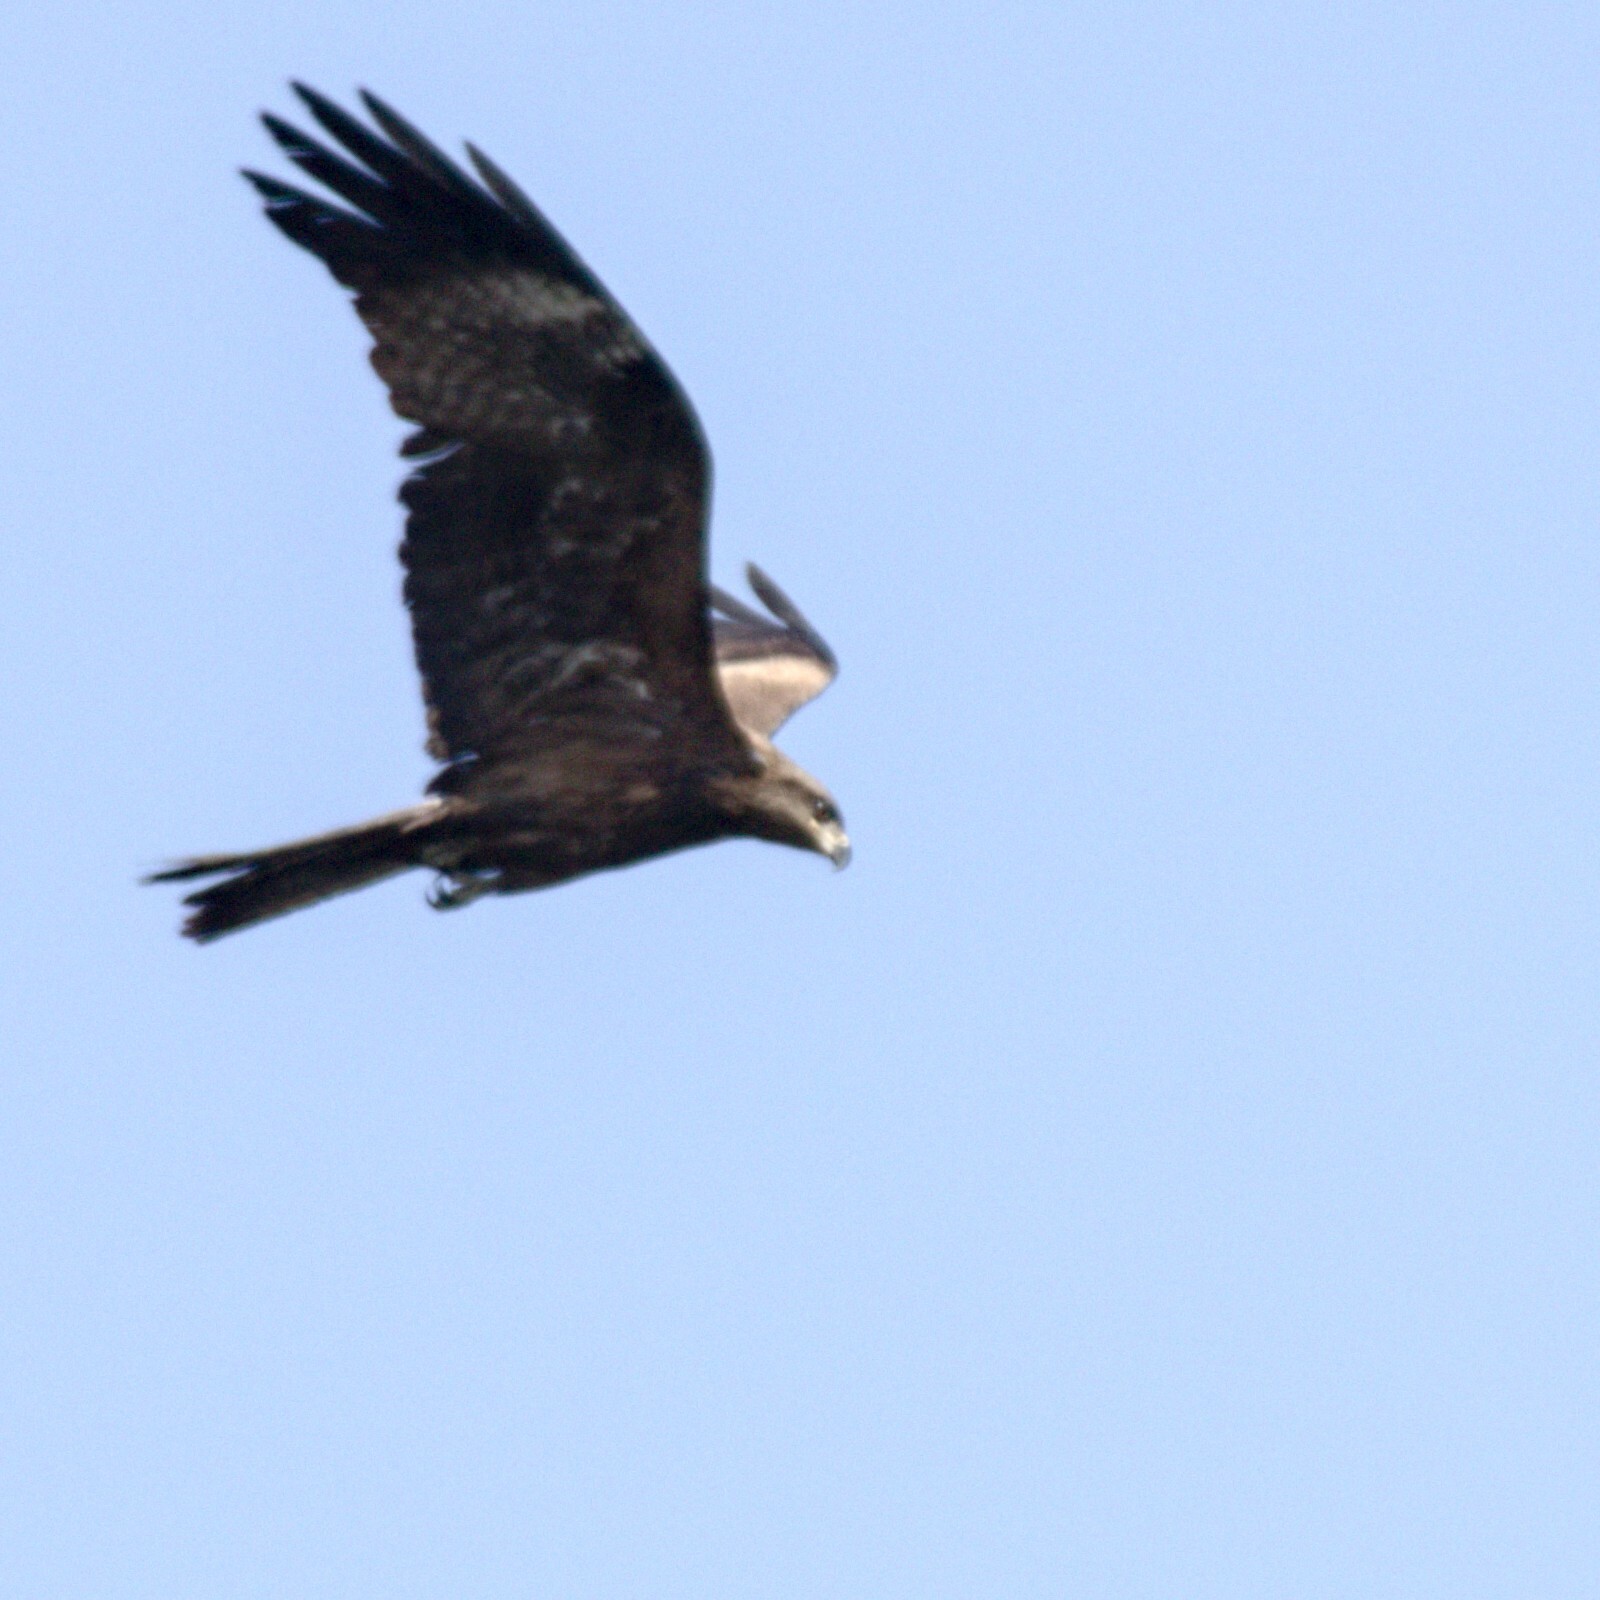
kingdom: Animalia
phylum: Chordata
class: Aves
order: Accipitriformes
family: Accipitridae
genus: Milvus
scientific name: Milvus migrans
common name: Black kite
